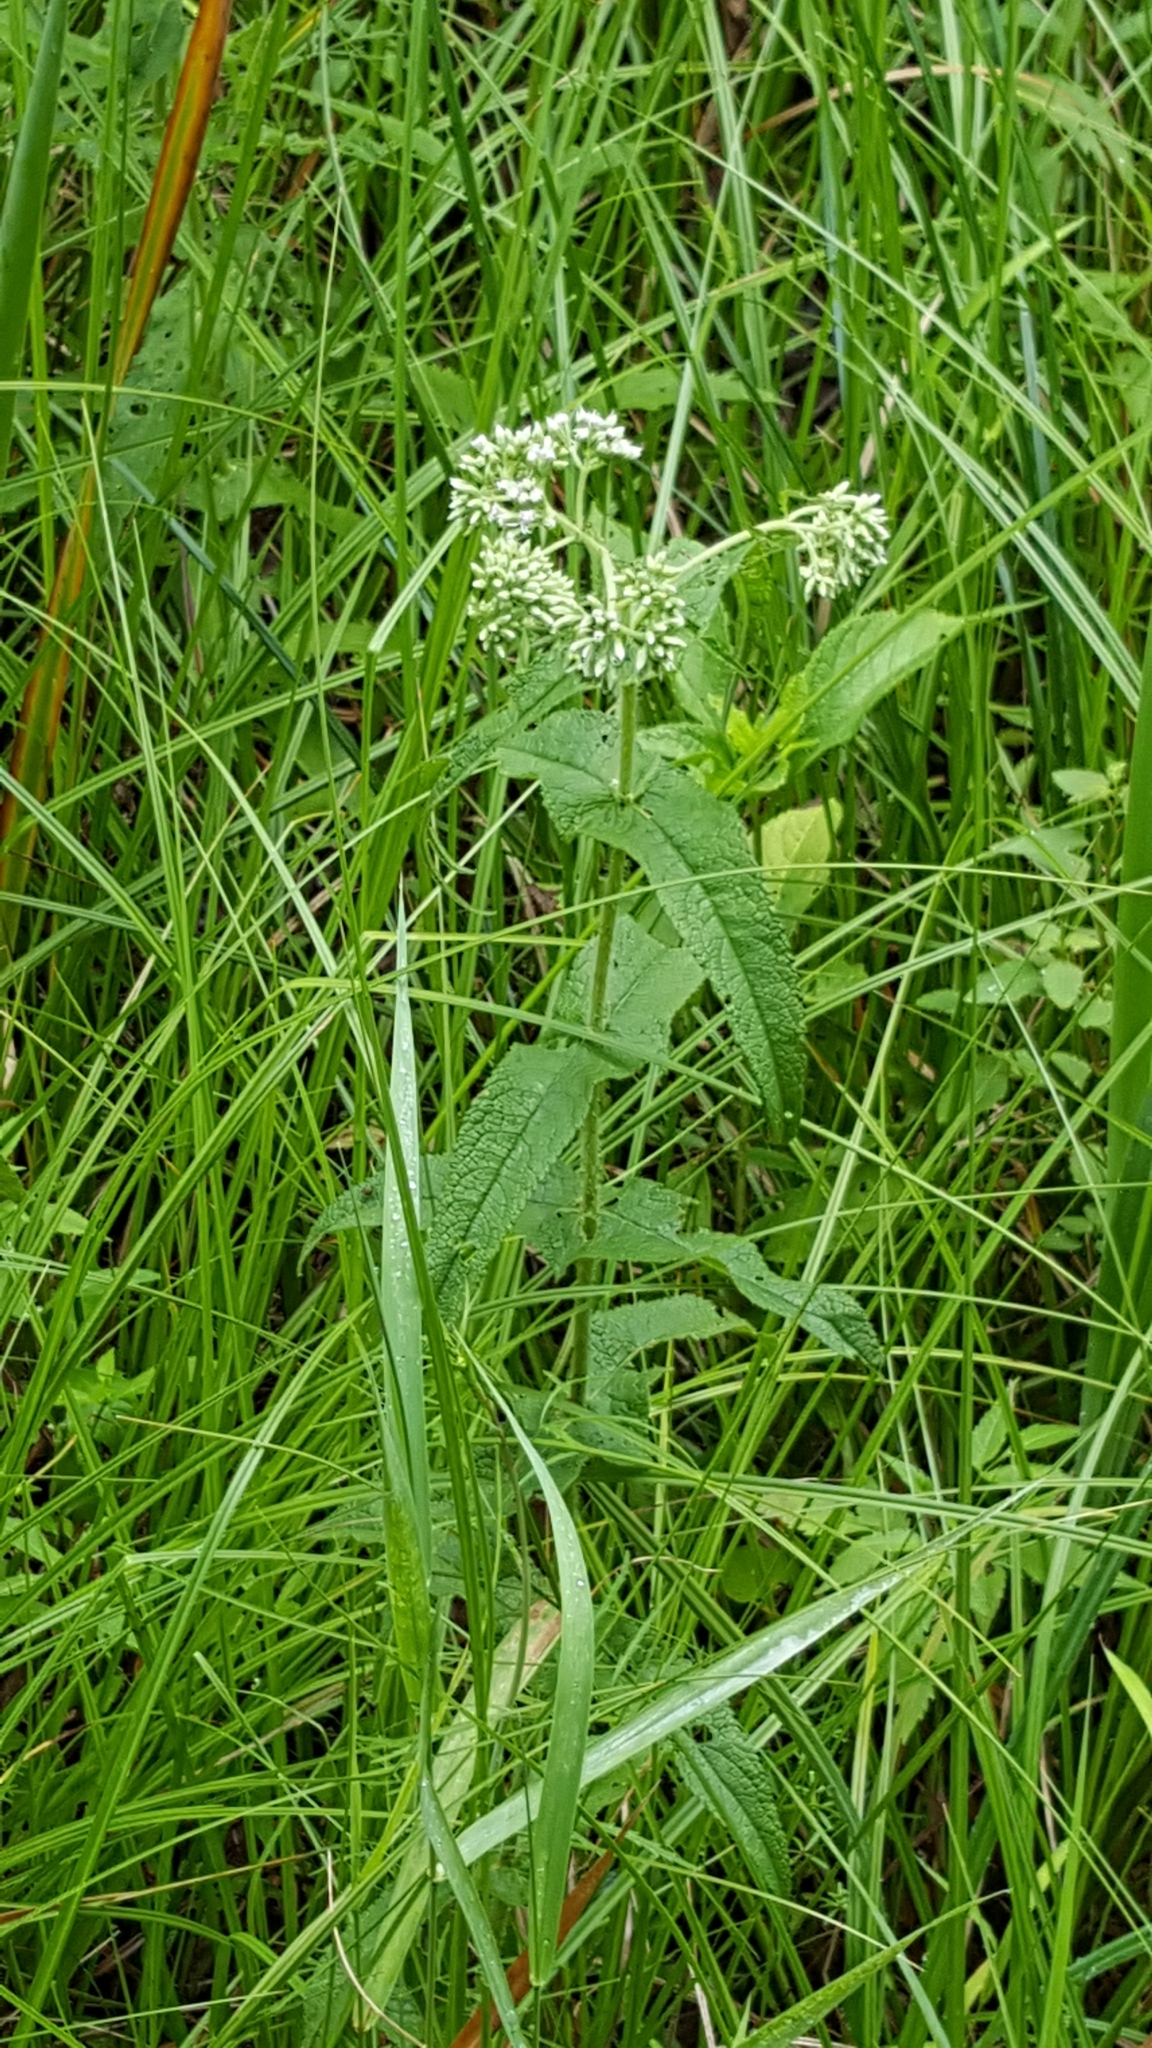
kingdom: Plantae
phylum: Tracheophyta
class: Magnoliopsida
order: Asterales
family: Asteraceae
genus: Eupatorium
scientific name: Eupatorium perfoliatum
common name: Boneset
